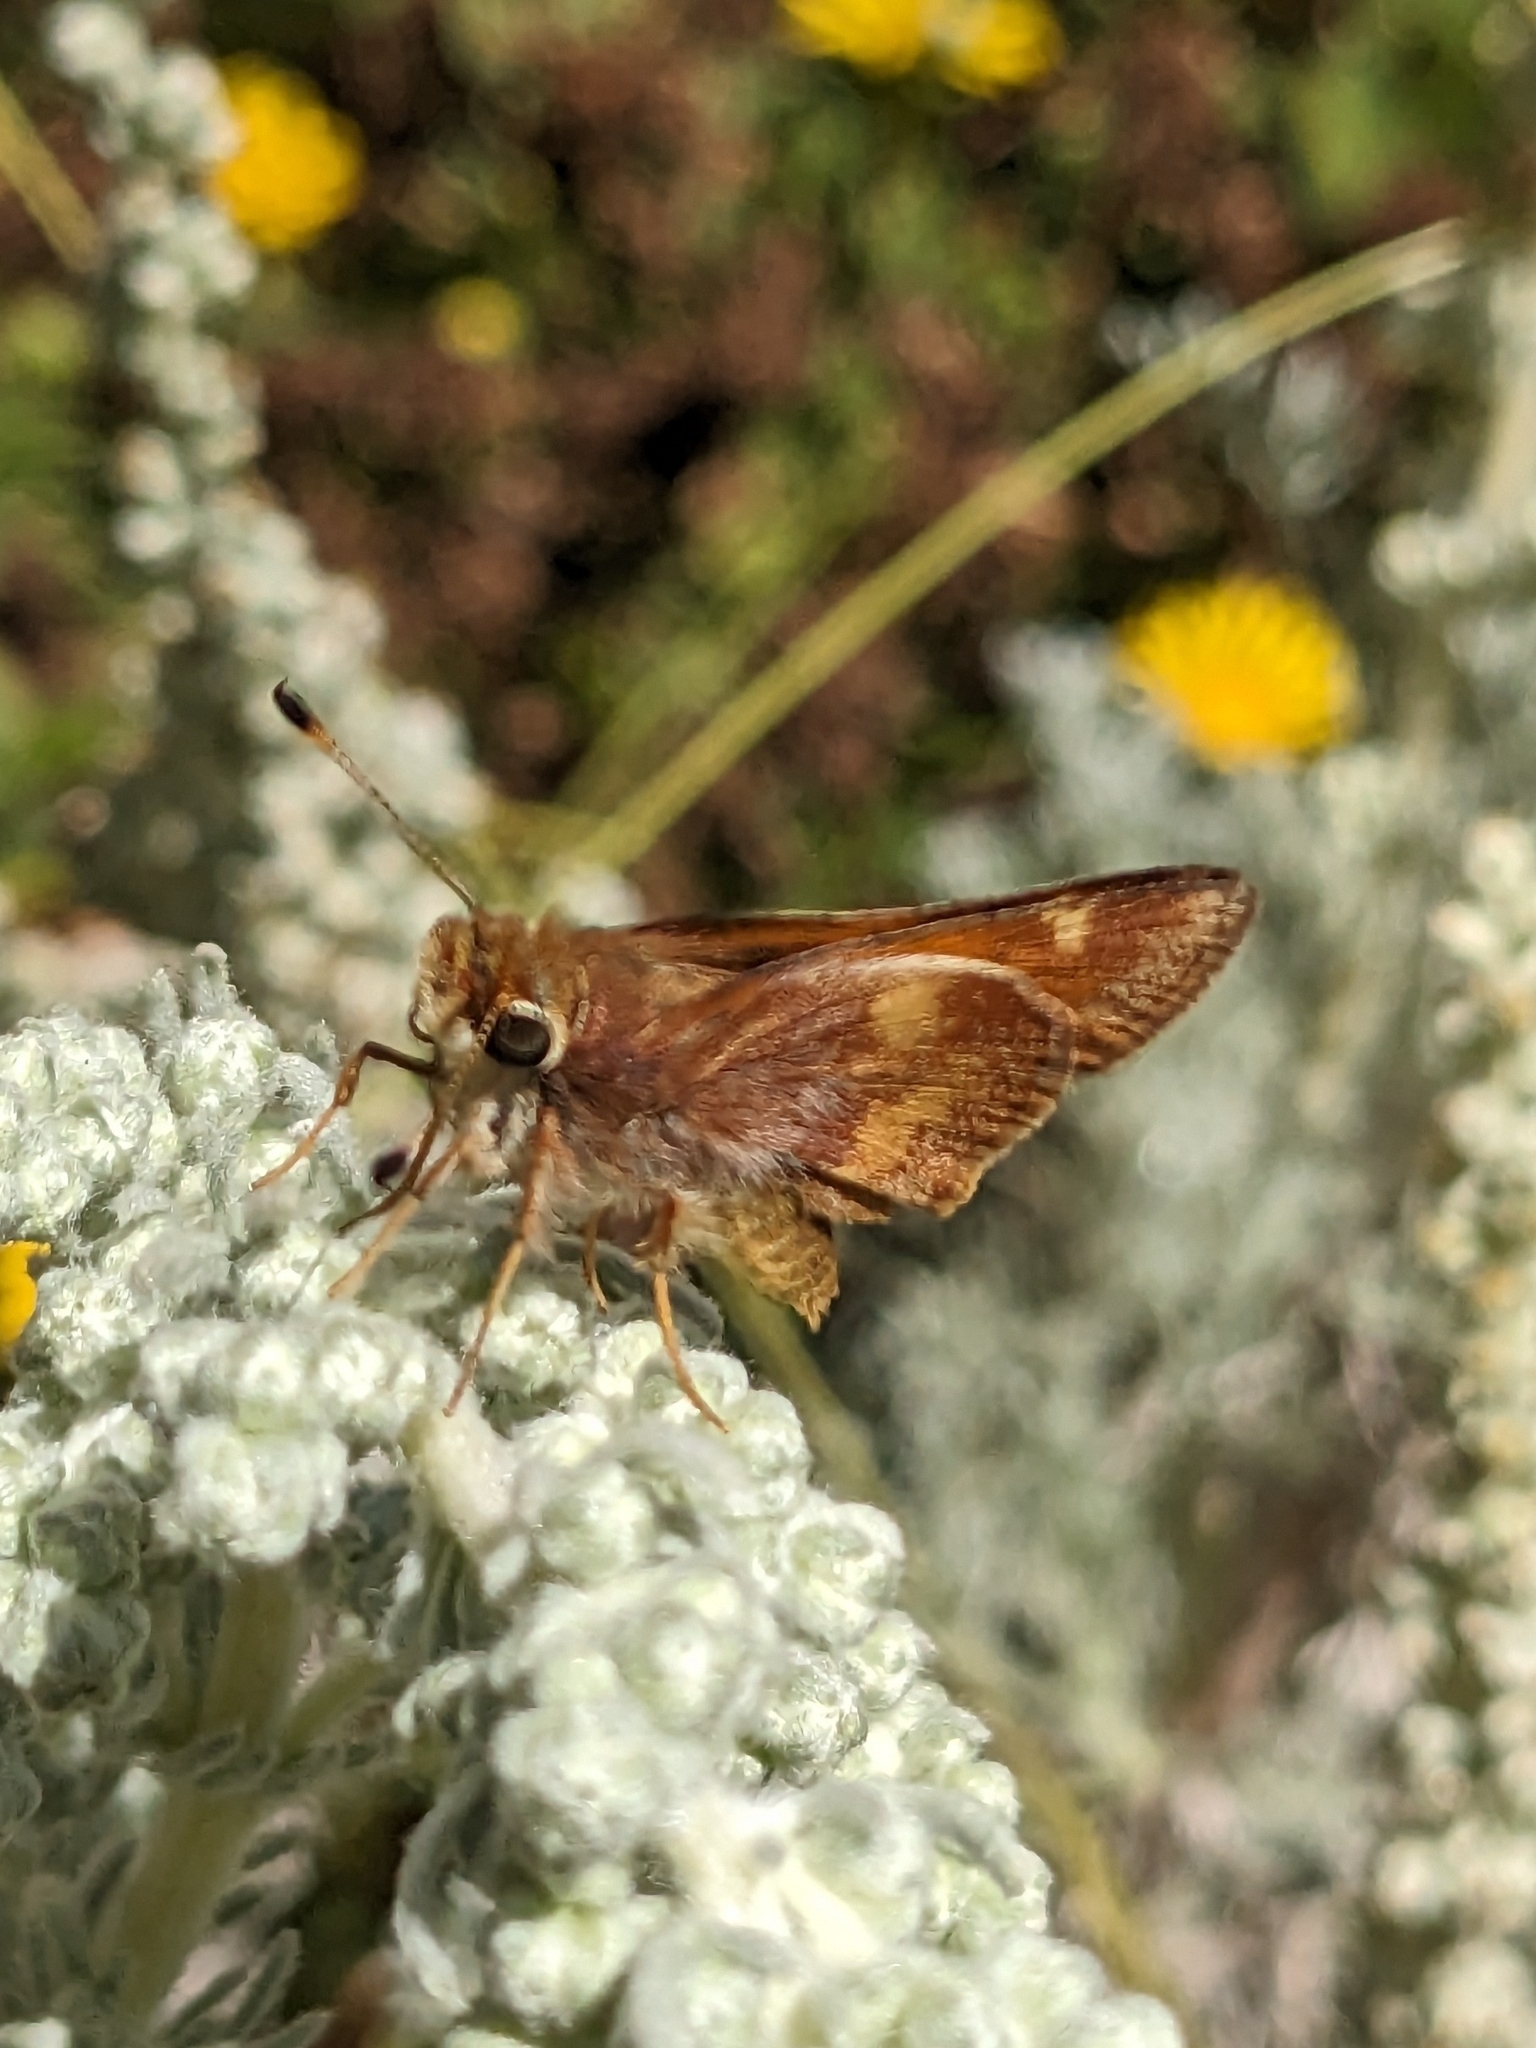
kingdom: Animalia
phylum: Arthropoda
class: Insecta
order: Lepidoptera
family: Hesperiidae
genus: Lon
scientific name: Lon melane
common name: Umber skipper
